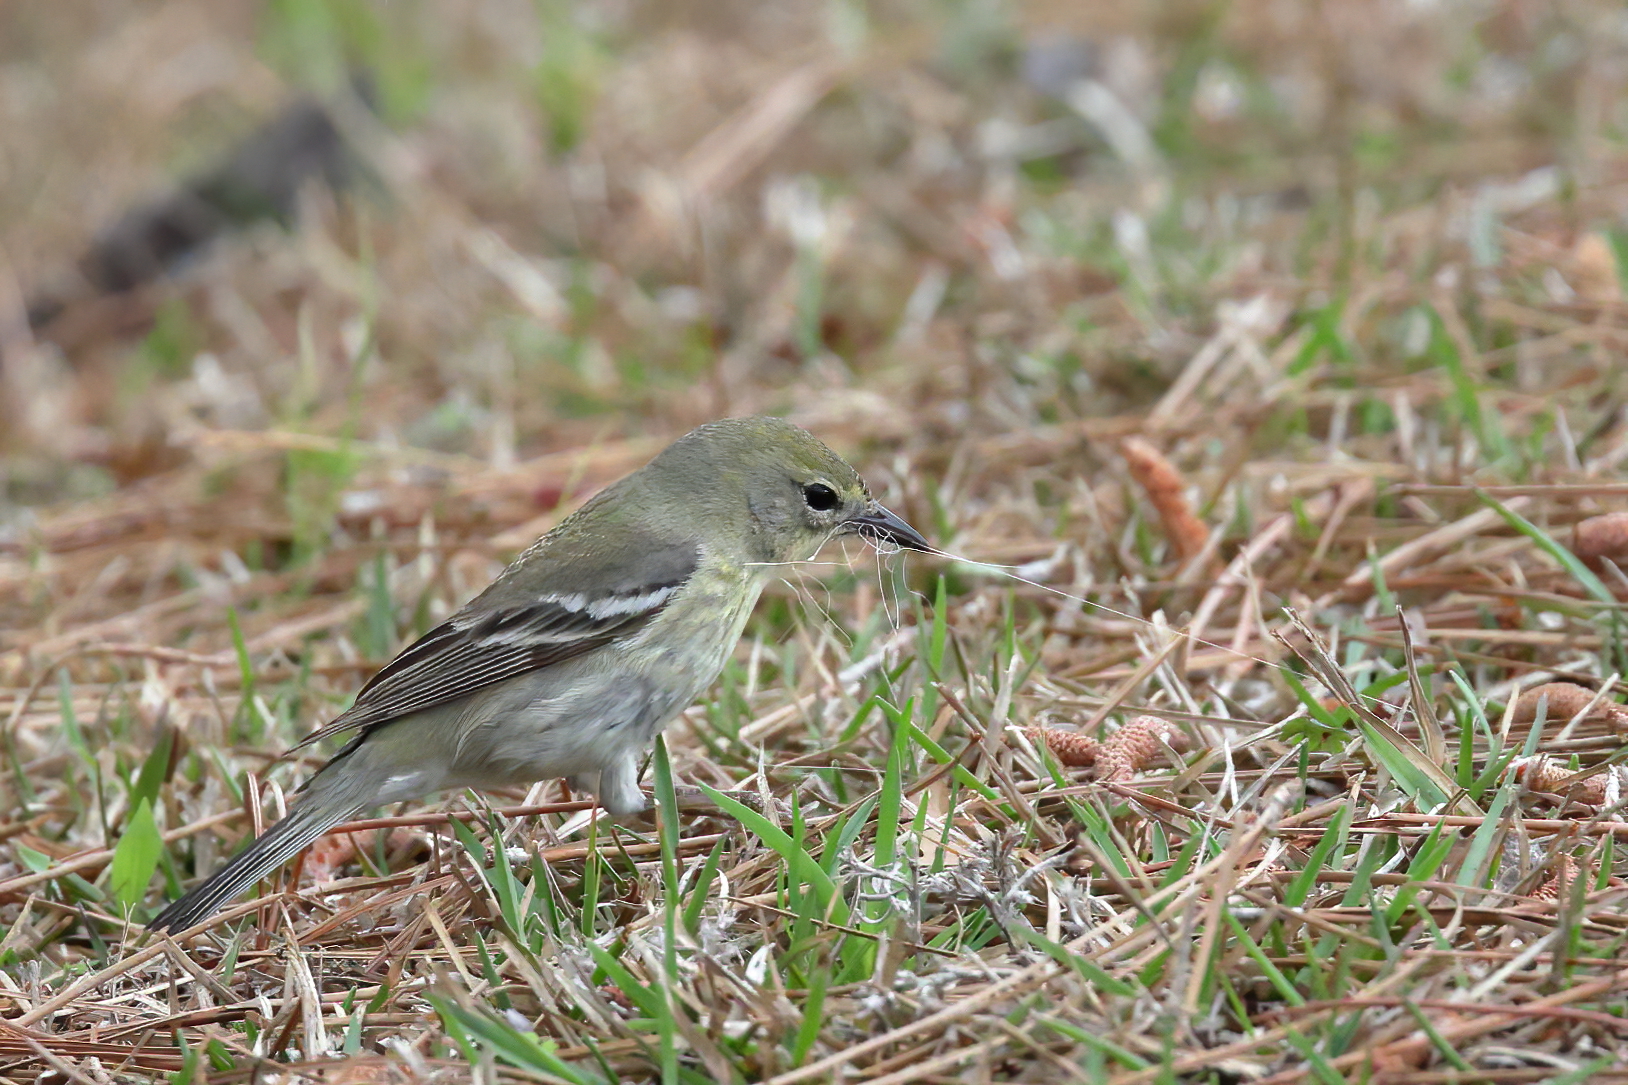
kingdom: Animalia
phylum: Chordata
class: Aves
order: Passeriformes
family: Parulidae
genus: Setophaga
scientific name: Setophaga pinus
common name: Pine warbler
